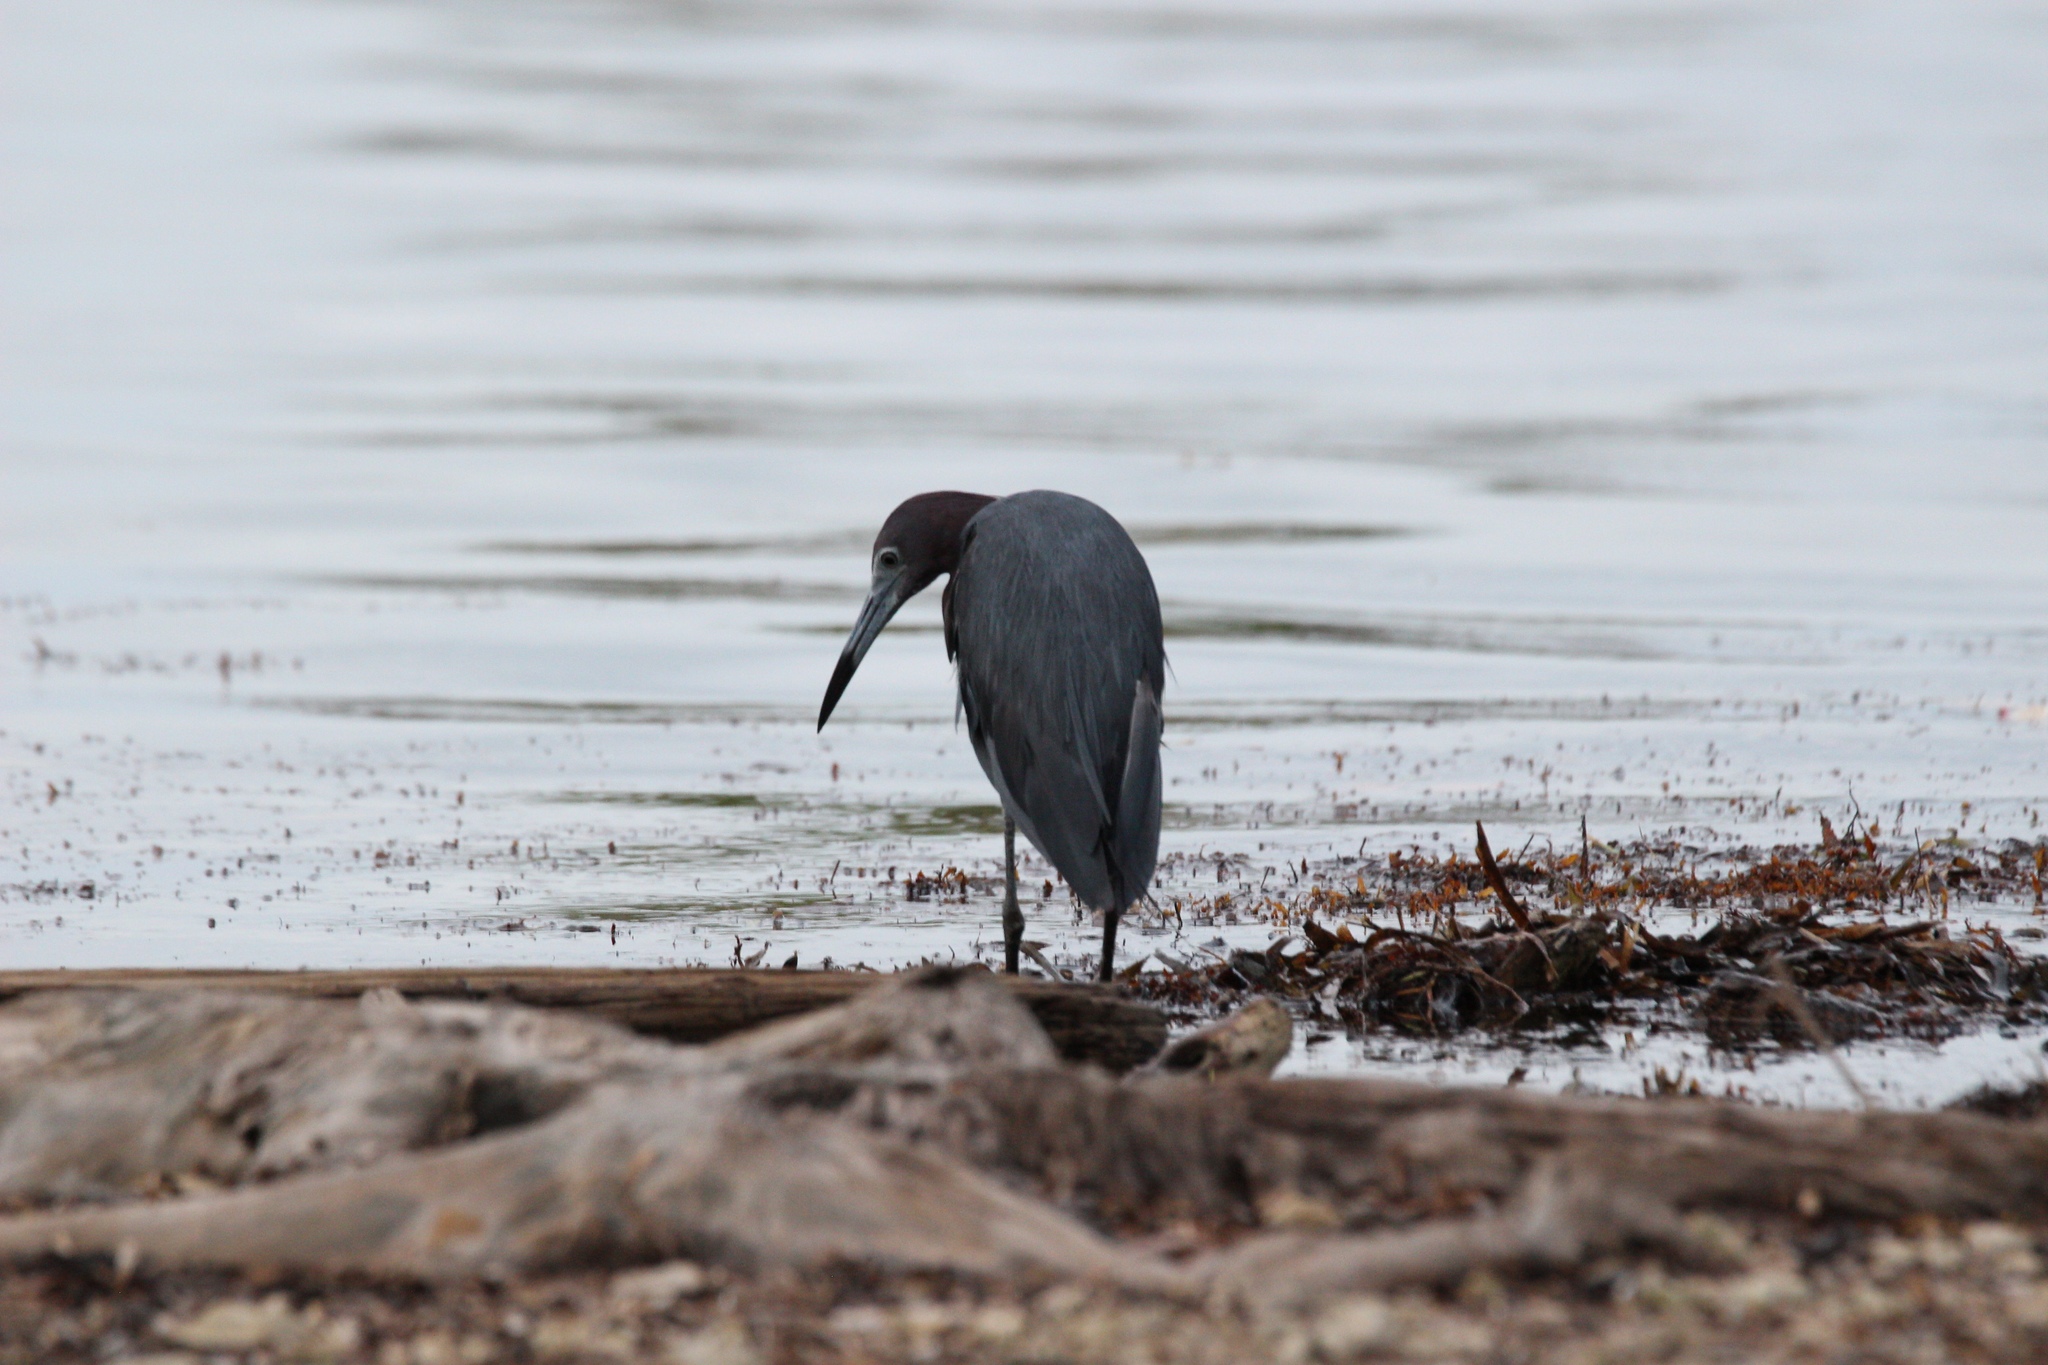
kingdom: Animalia
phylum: Chordata
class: Aves
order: Pelecaniformes
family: Ardeidae
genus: Egretta
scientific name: Egretta caerulea
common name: Little blue heron
